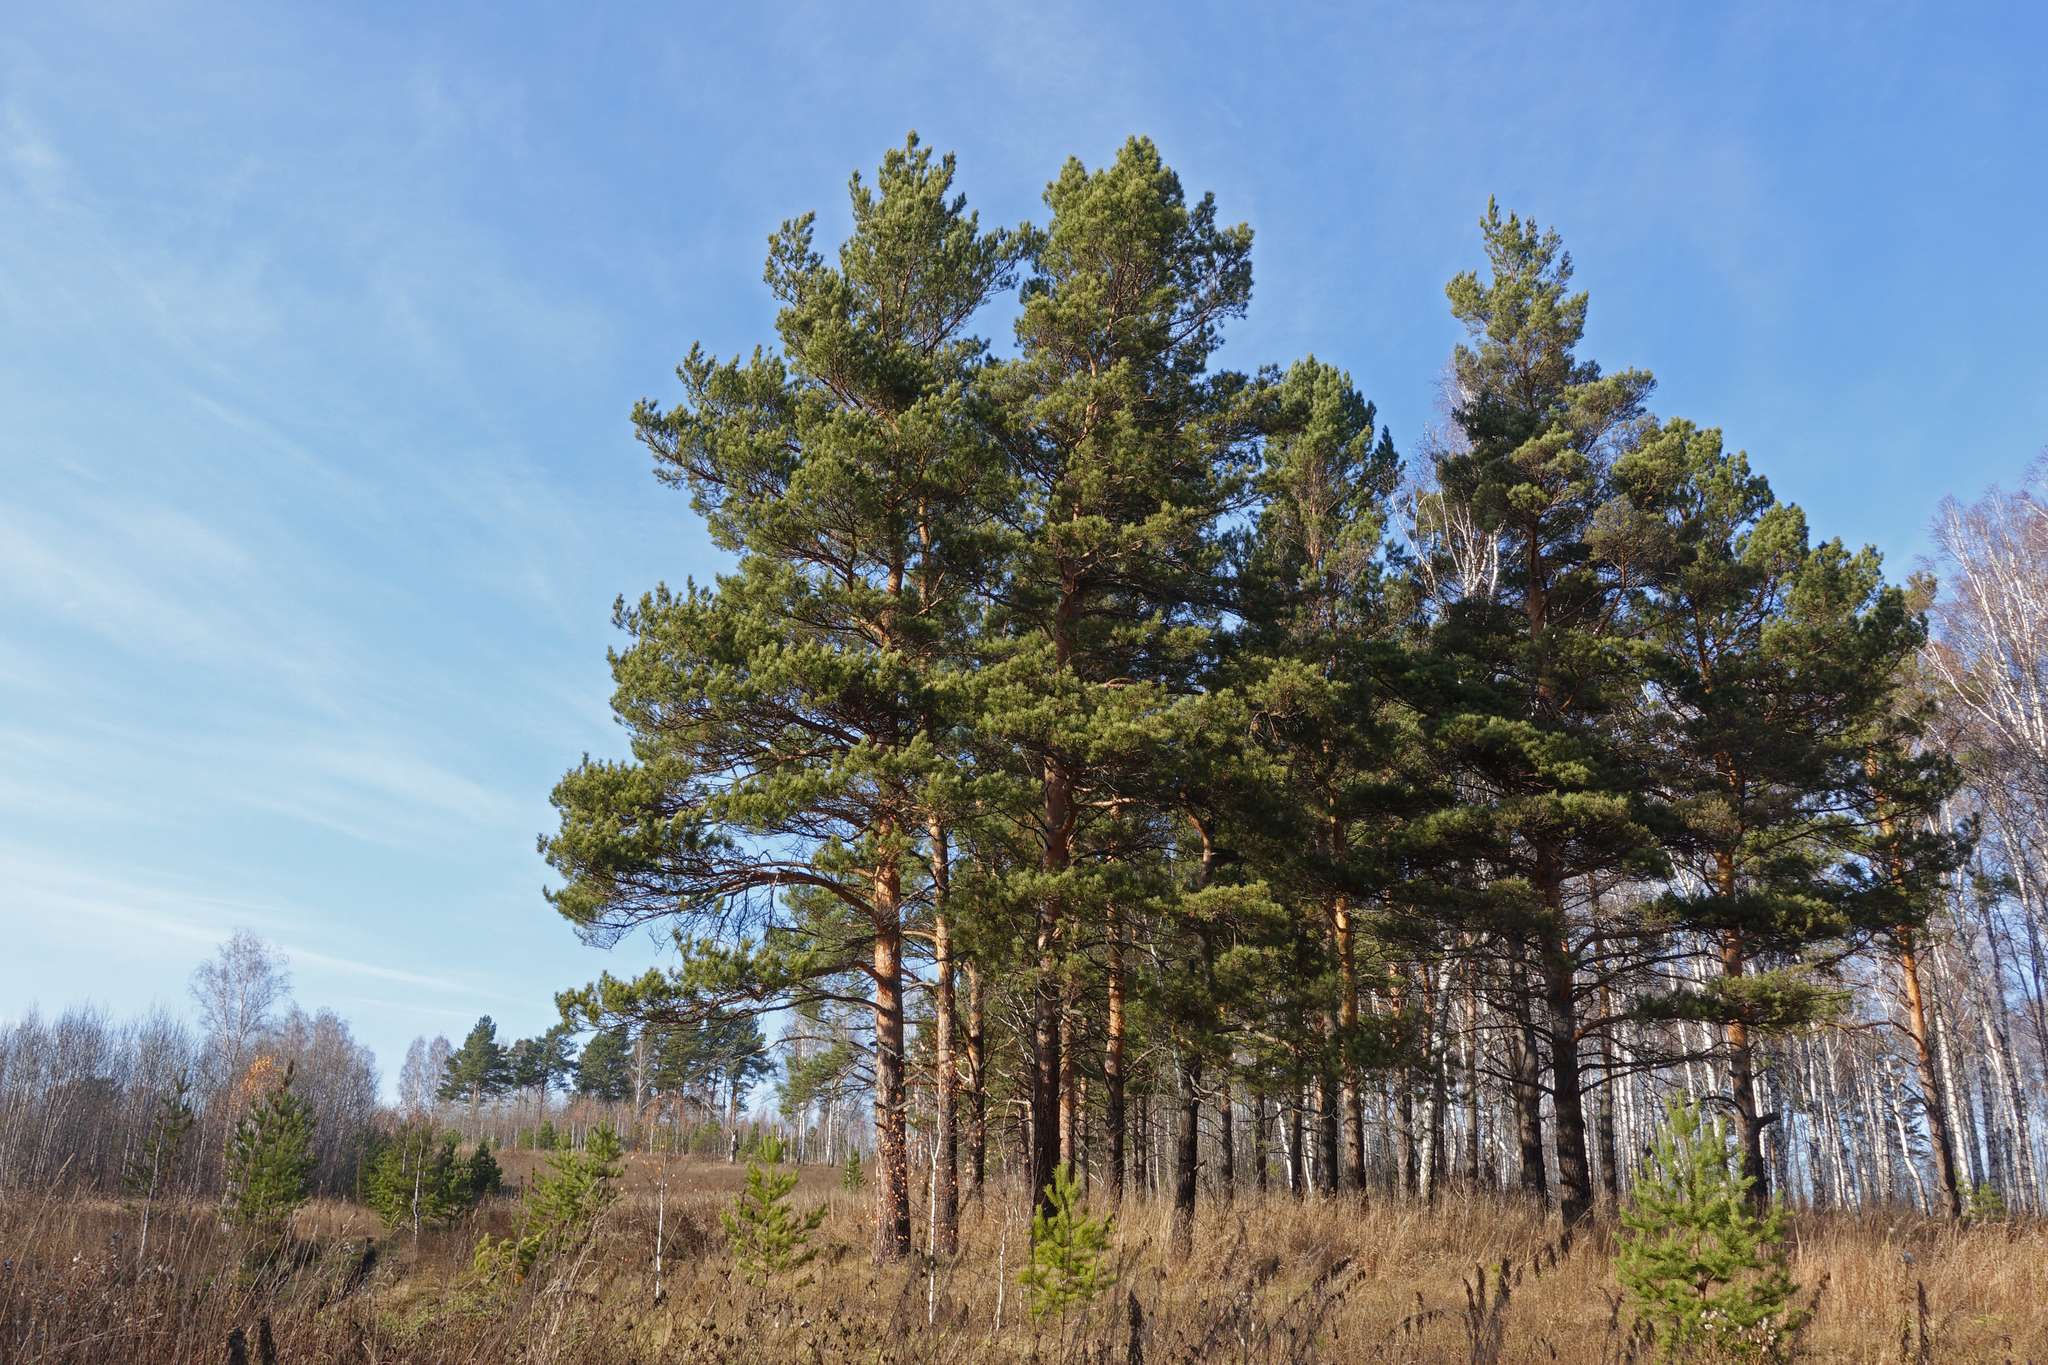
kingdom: Plantae
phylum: Tracheophyta
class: Pinopsida
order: Pinales
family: Pinaceae
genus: Pinus
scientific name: Pinus sylvestris
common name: Scots pine
